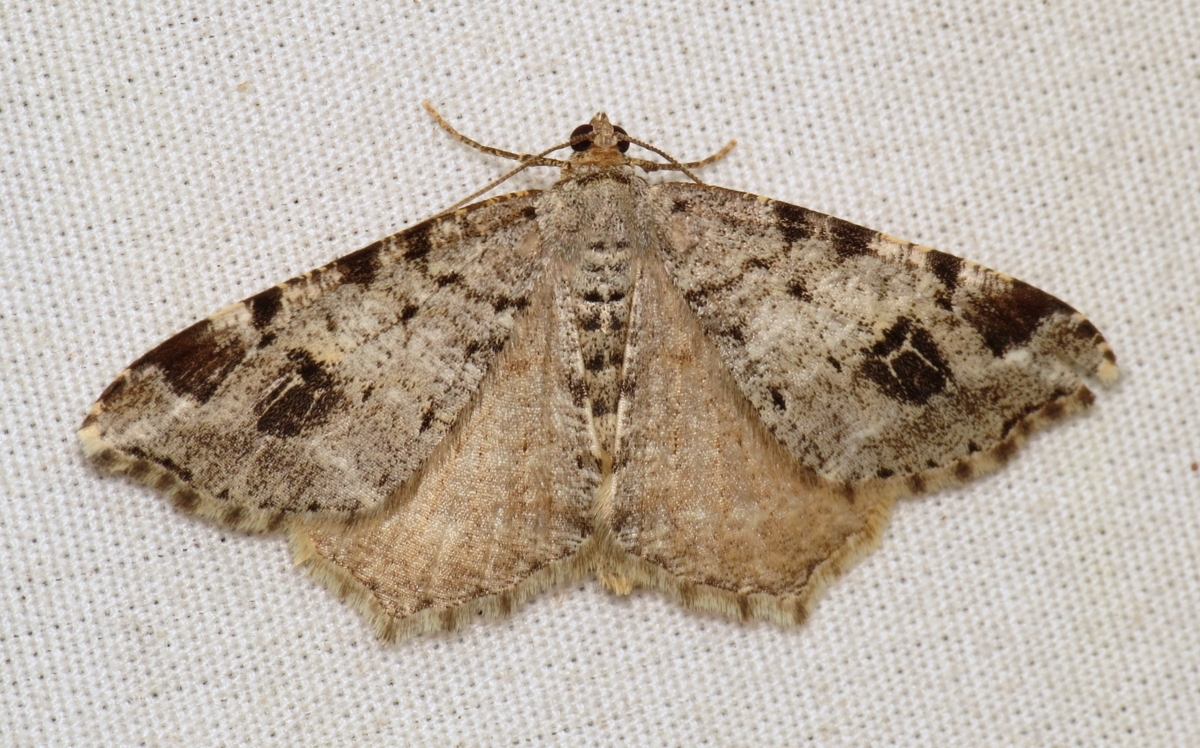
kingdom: Animalia
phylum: Arthropoda
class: Insecta
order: Lepidoptera
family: Geometridae
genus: Macaria
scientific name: Macaria signaria
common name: Dusky peacock
